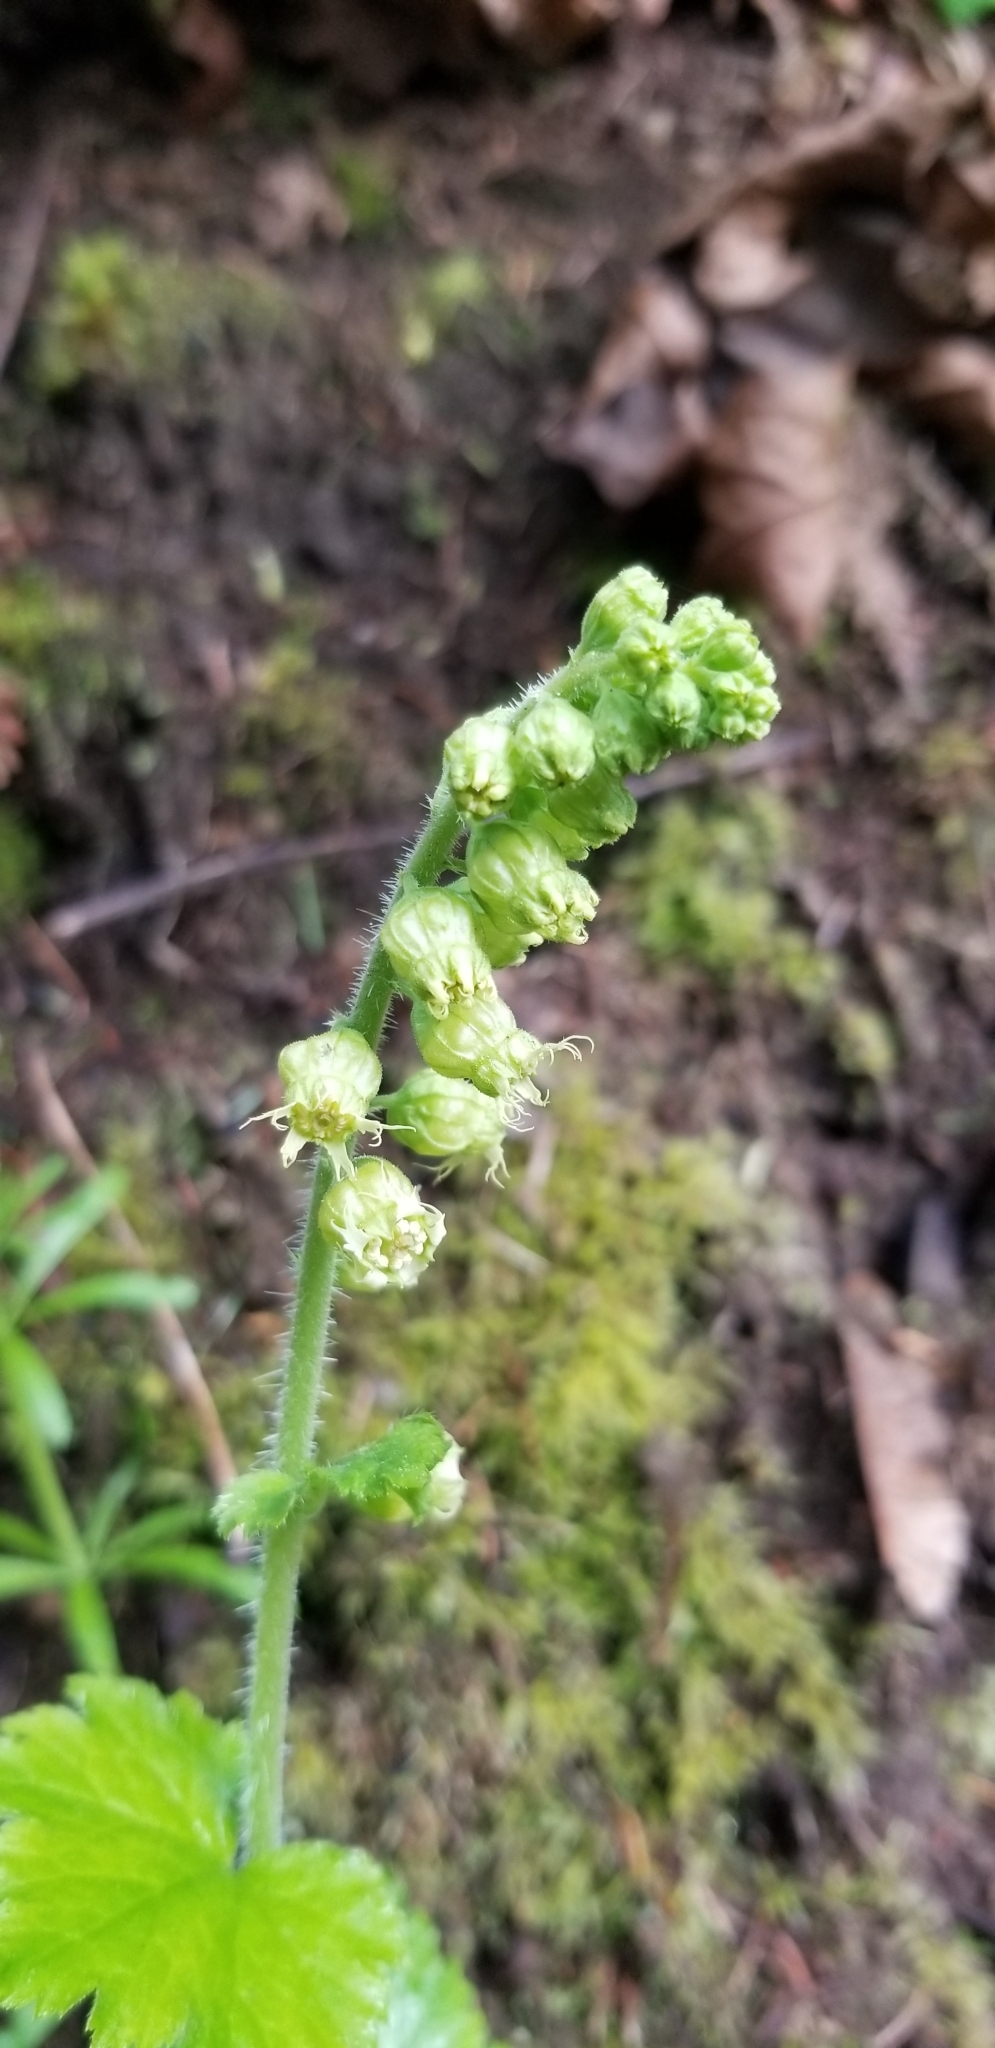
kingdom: Plantae
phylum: Tracheophyta
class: Magnoliopsida
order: Saxifragales
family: Saxifragaceae
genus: Tellima
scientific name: Tellima grandiflora
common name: Fringecups
